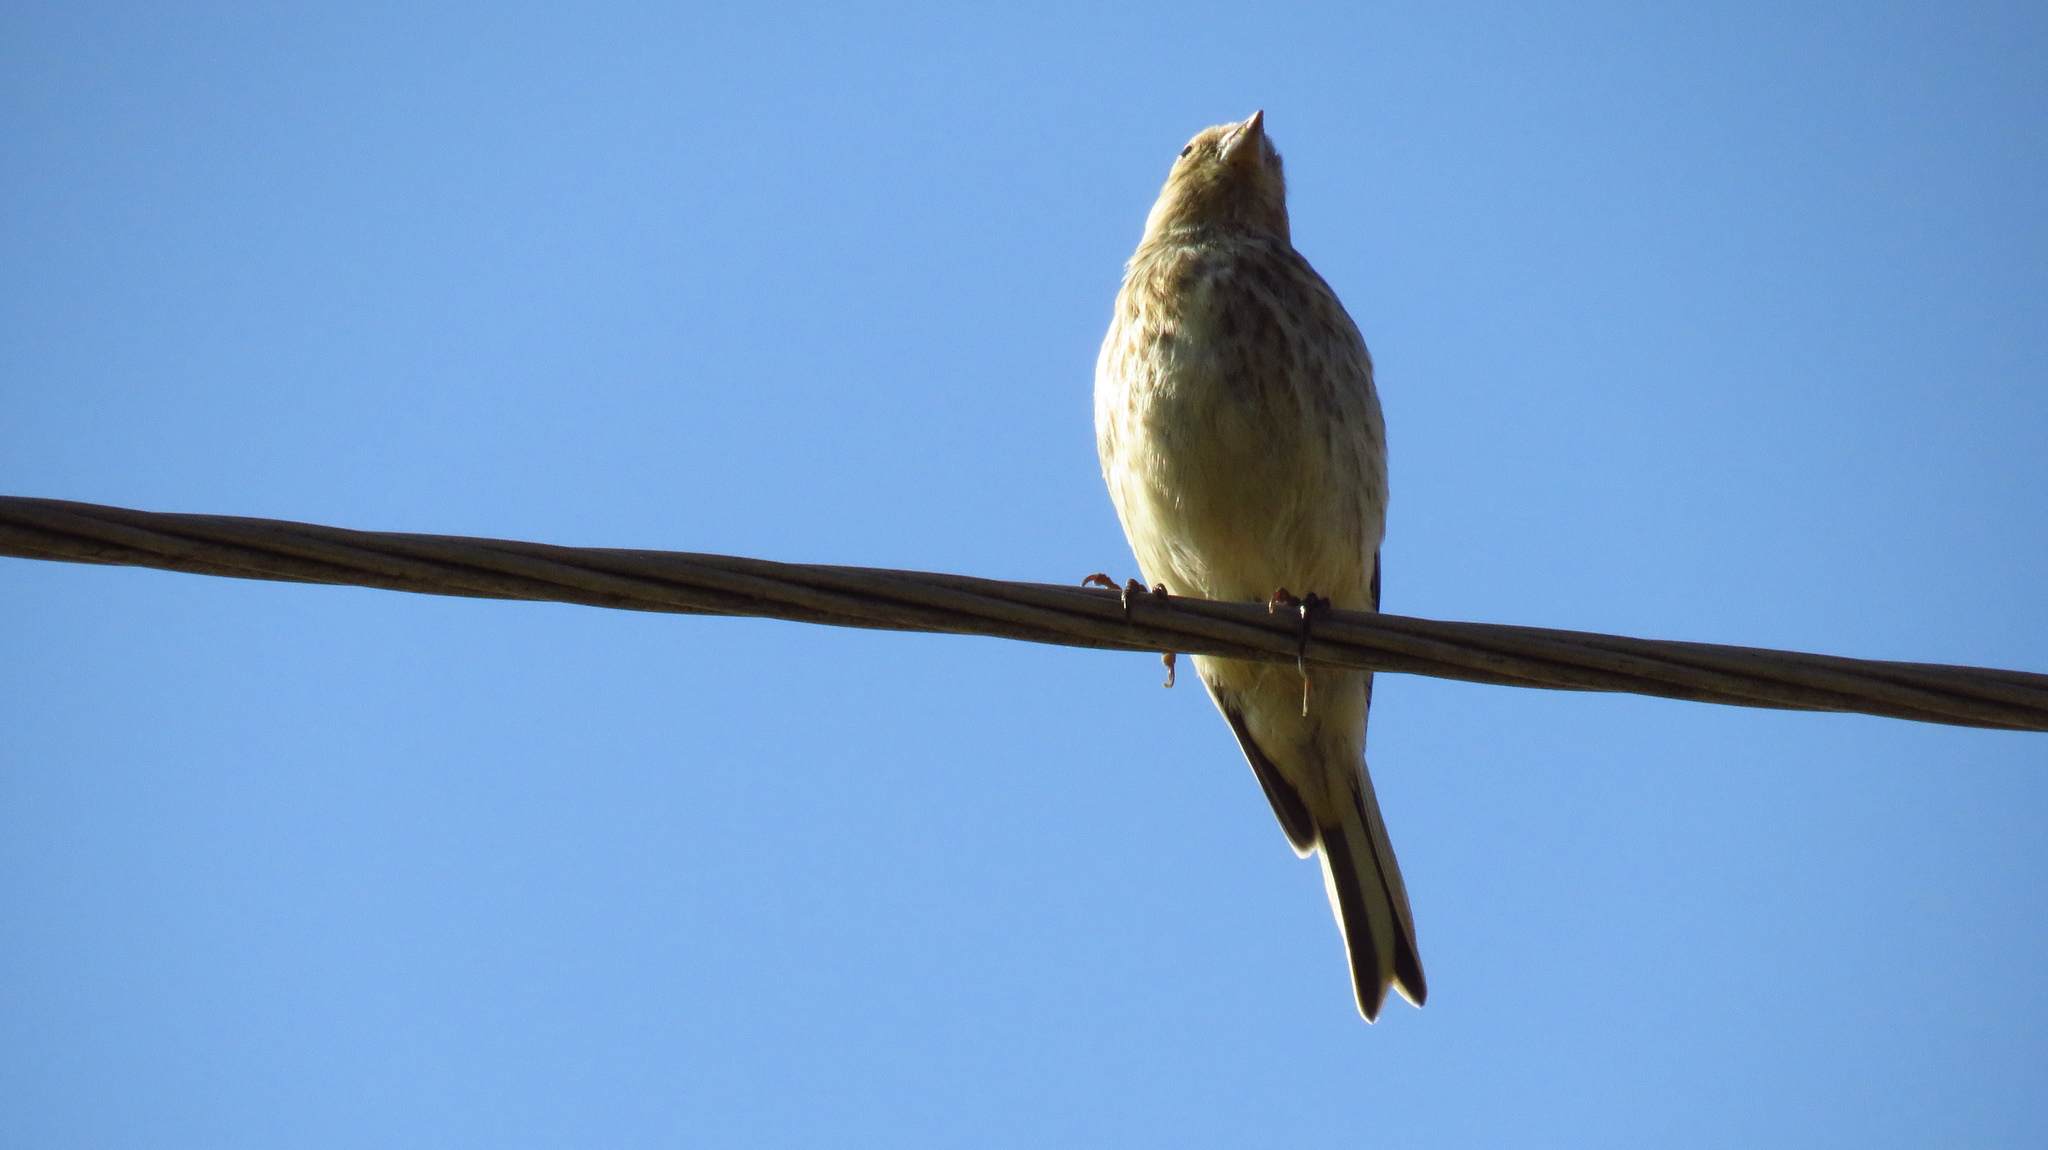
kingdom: Animalia
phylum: Chordata
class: Aves
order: Passeriformes
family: Fringillidae
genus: Linaria
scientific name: Linaria cannabina
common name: Common linnet
